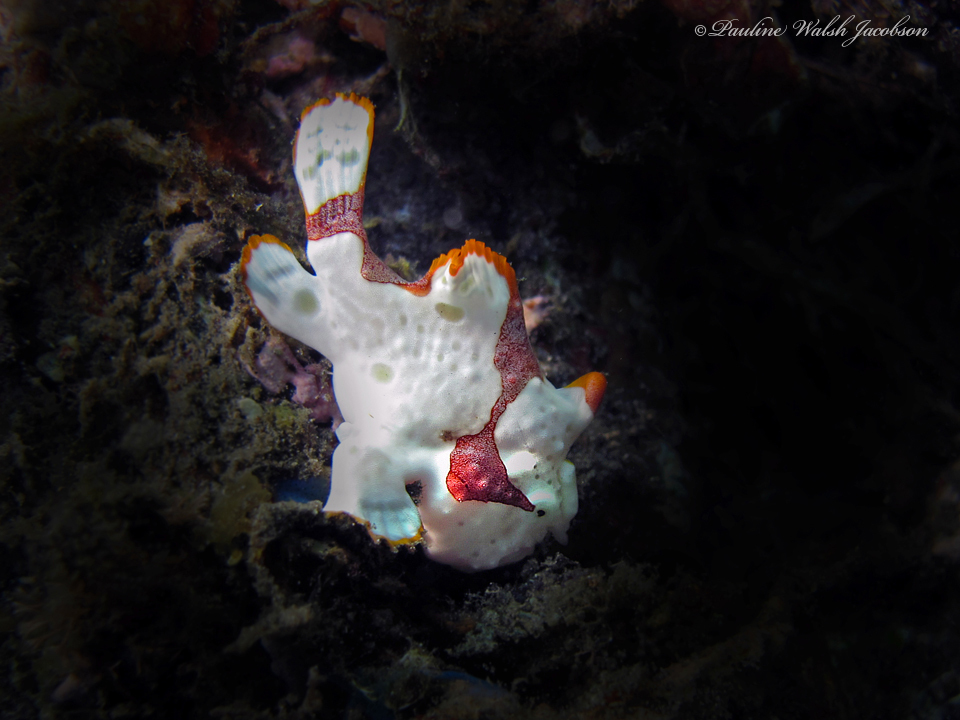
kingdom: Animalia
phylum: Chordata
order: Lophiiformes
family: Antennariidae
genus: Antennarius
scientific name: Antennarius maculatus
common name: Warty frogfish
